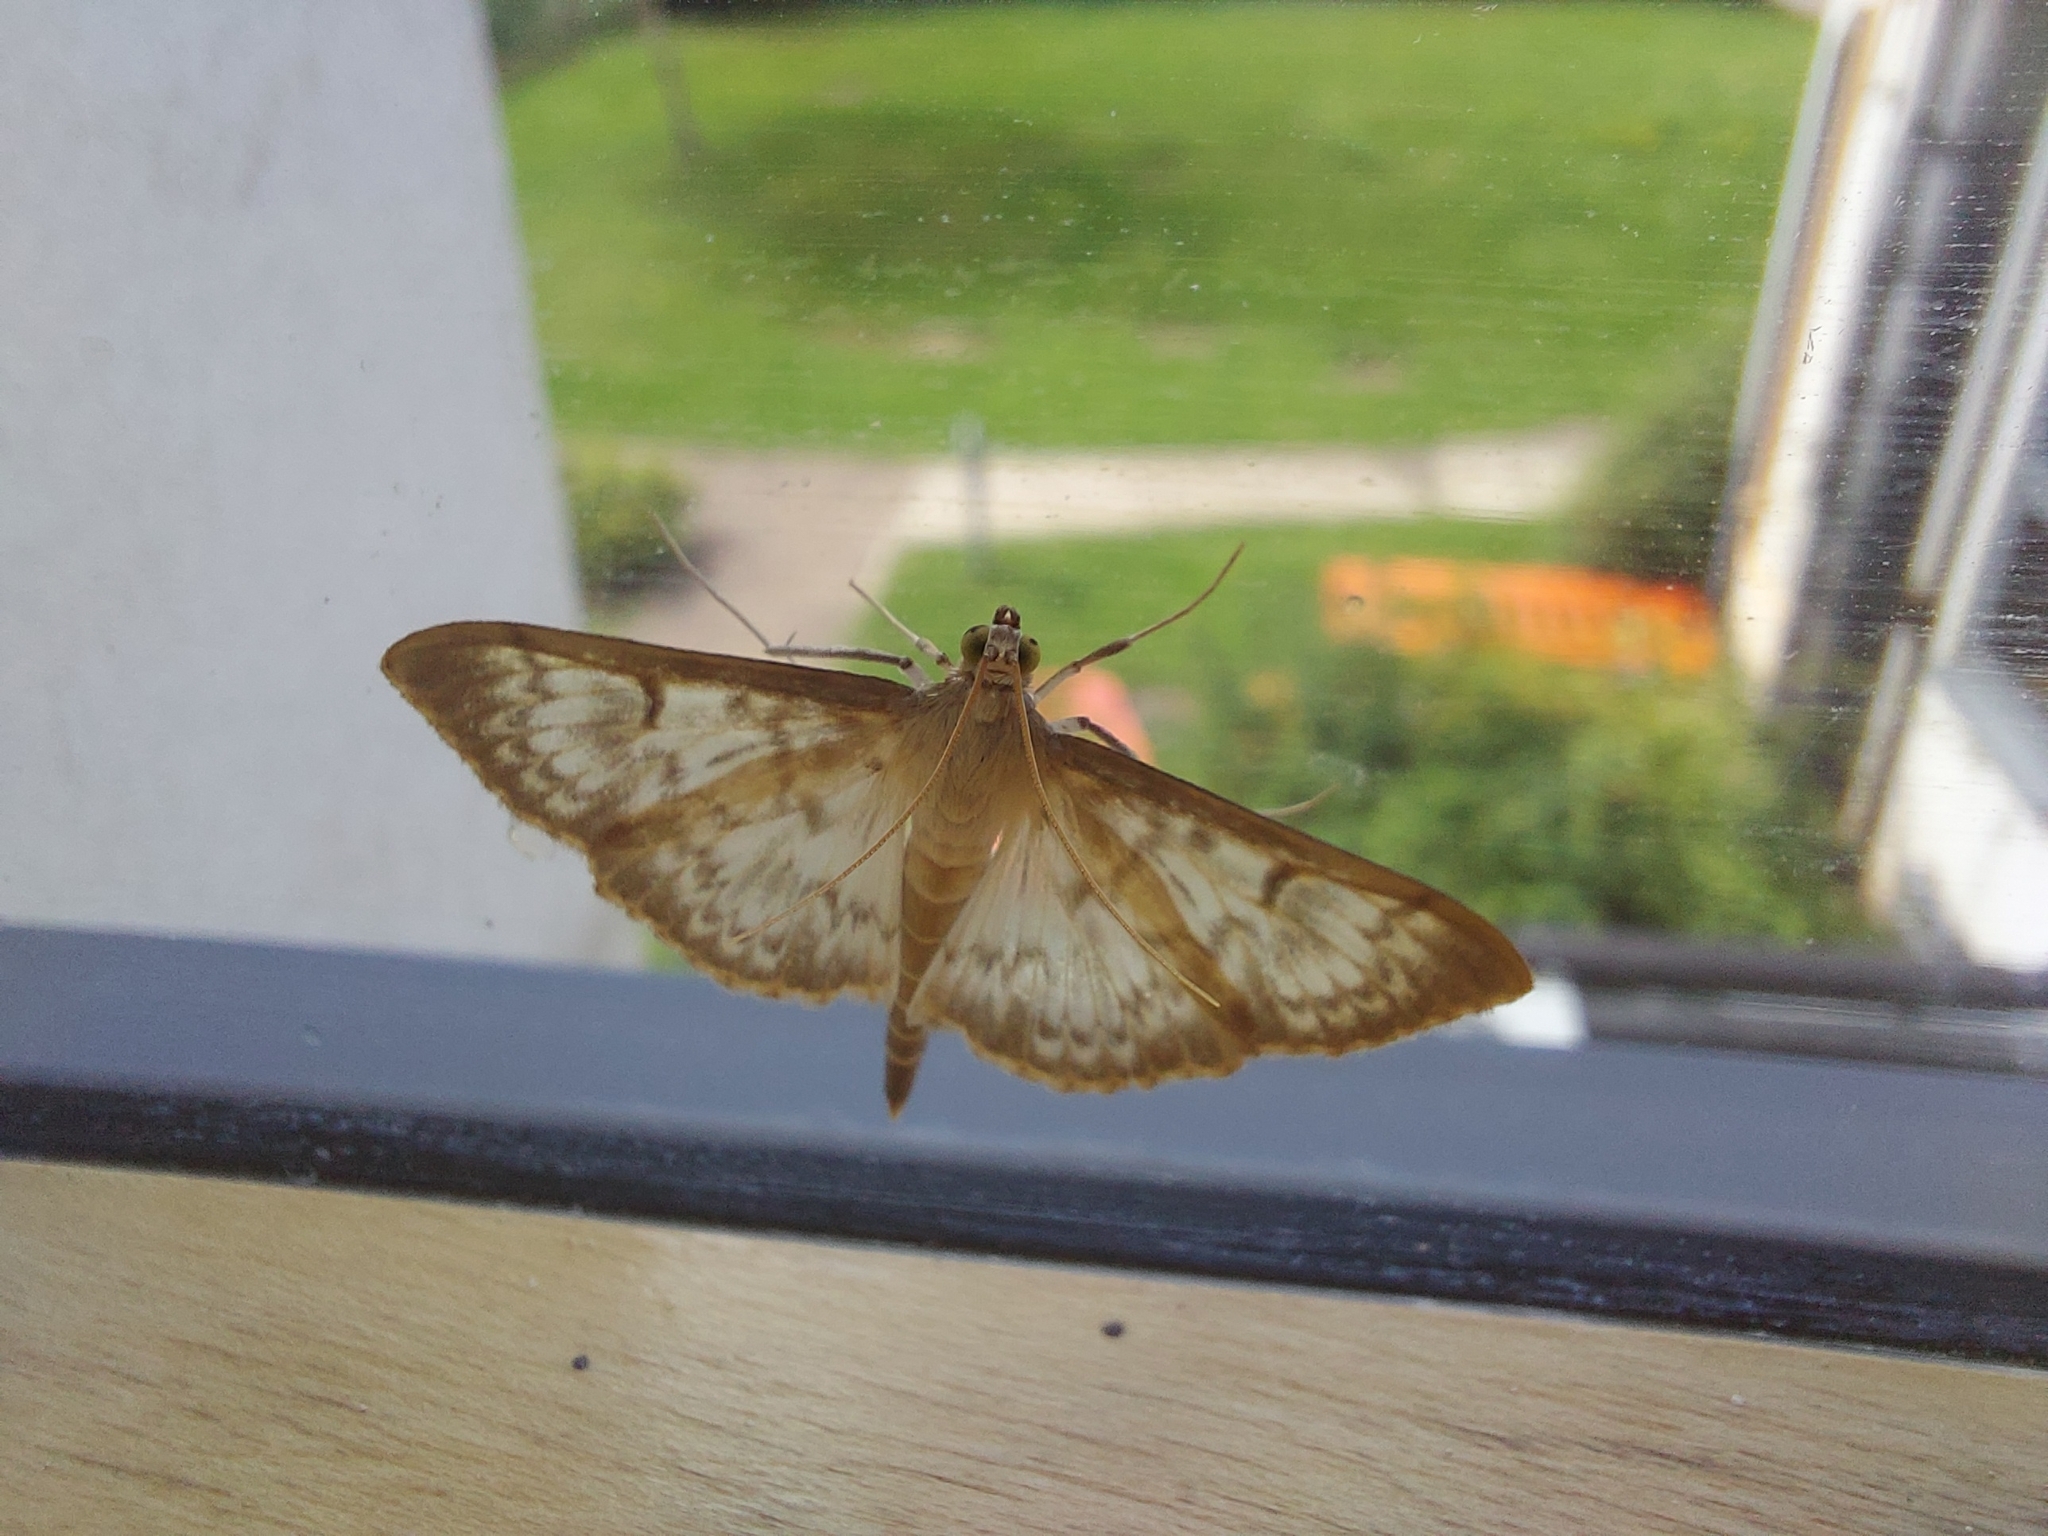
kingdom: Animalia
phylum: Arthropoda
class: Insecta
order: Lepidoptera
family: Crambidae
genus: Patania
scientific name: Patania ruralis
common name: Mother of pearl
